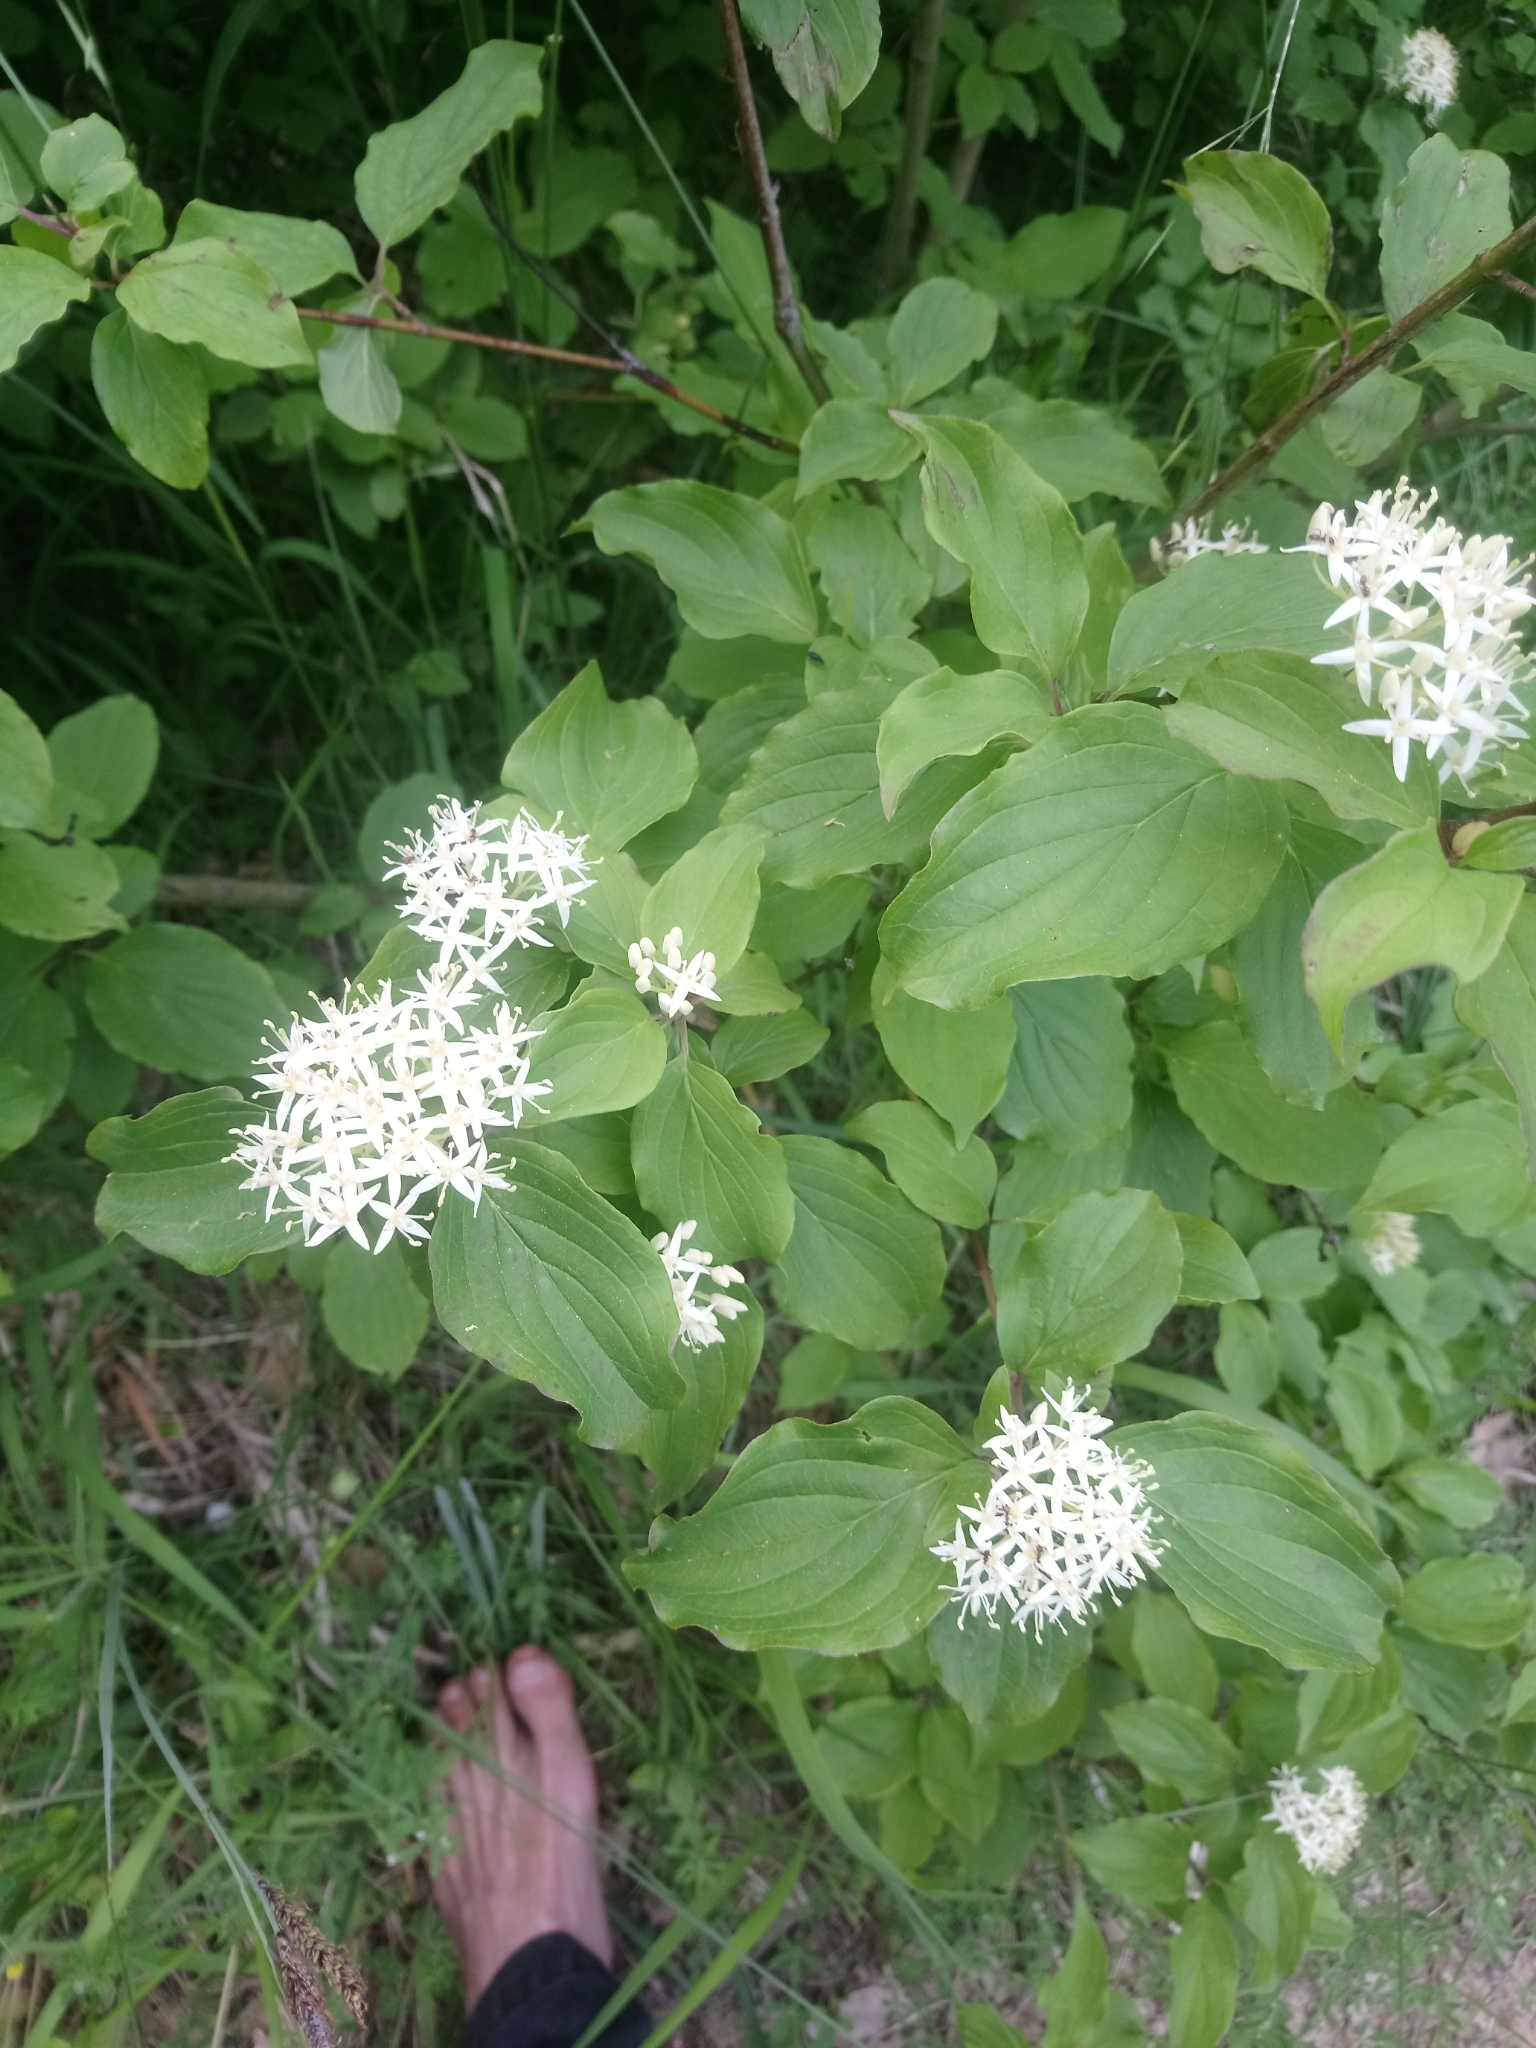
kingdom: Plantae
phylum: Tracheophyta
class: Magnoliopsida
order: Cornales
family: Cornaceae
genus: Cornus
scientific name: Cornus sanguinea
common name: Dogwood
